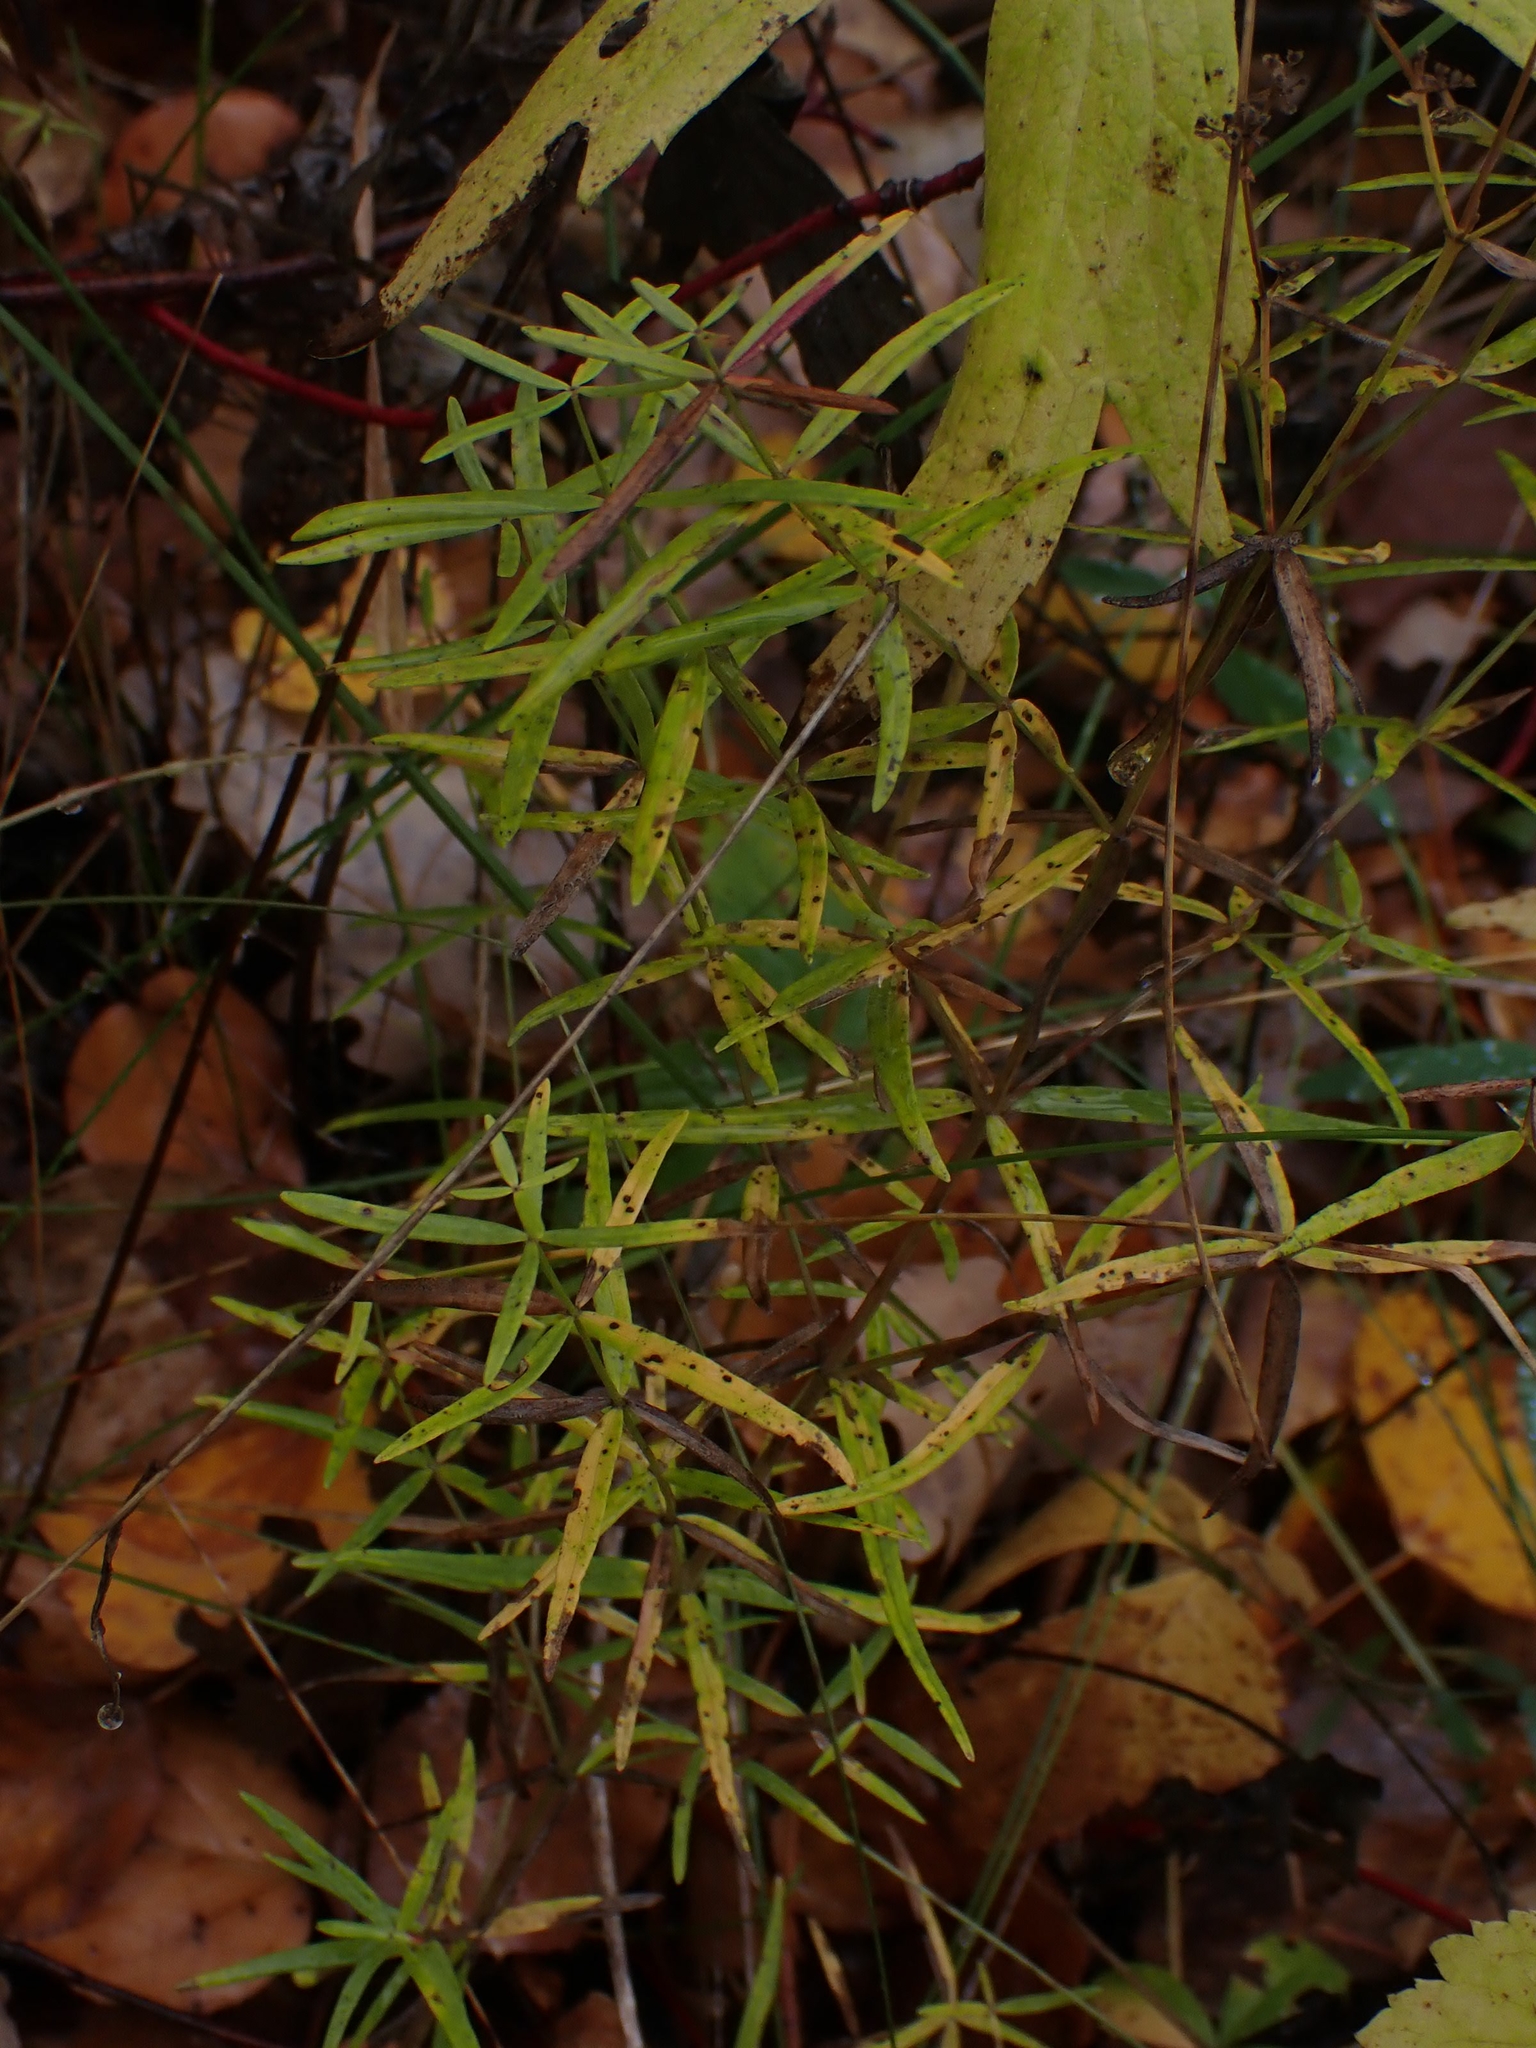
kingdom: Plantae
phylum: Tracheophyta
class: Magnoliopsida
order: Gentianales
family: Rubiaceae
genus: Galium
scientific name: Galium boreale
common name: Northern bedstraw
